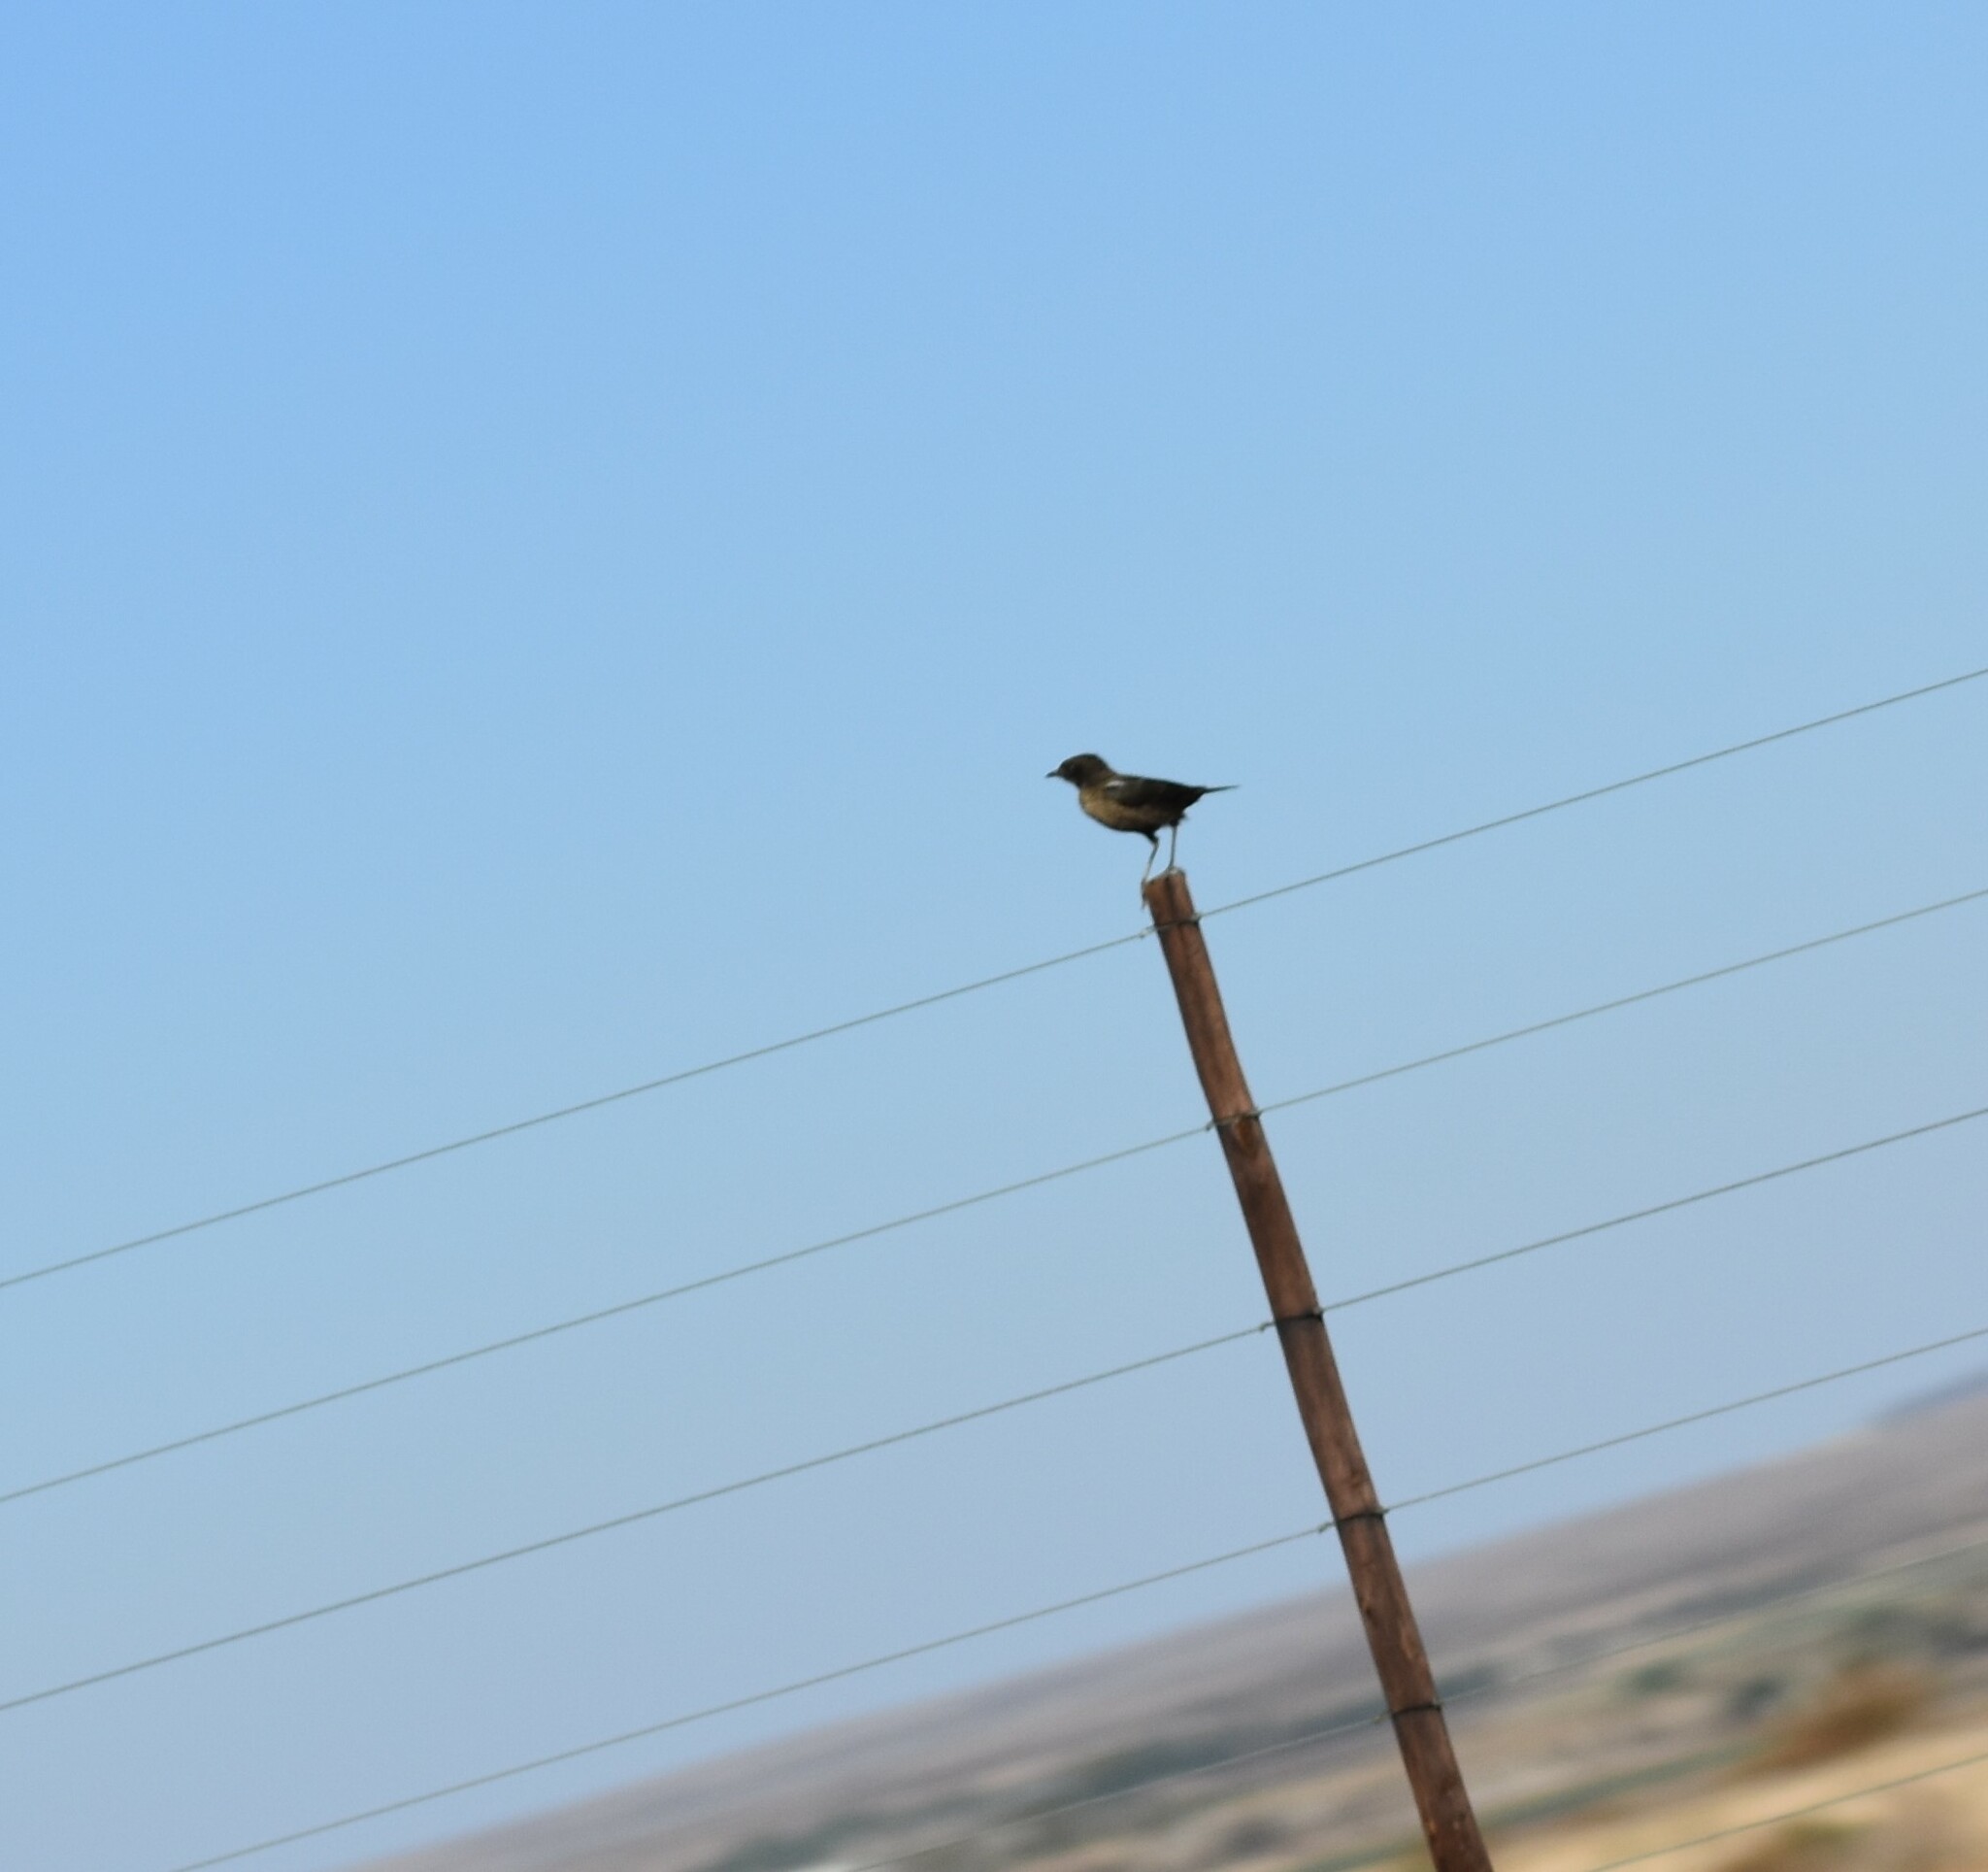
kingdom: Animalia
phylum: Chordata
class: Aves
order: Passeriformes
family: Muscicapidae
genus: Myrmecocichla
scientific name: Myrmecocichla formicivora
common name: Ant-eating chat
